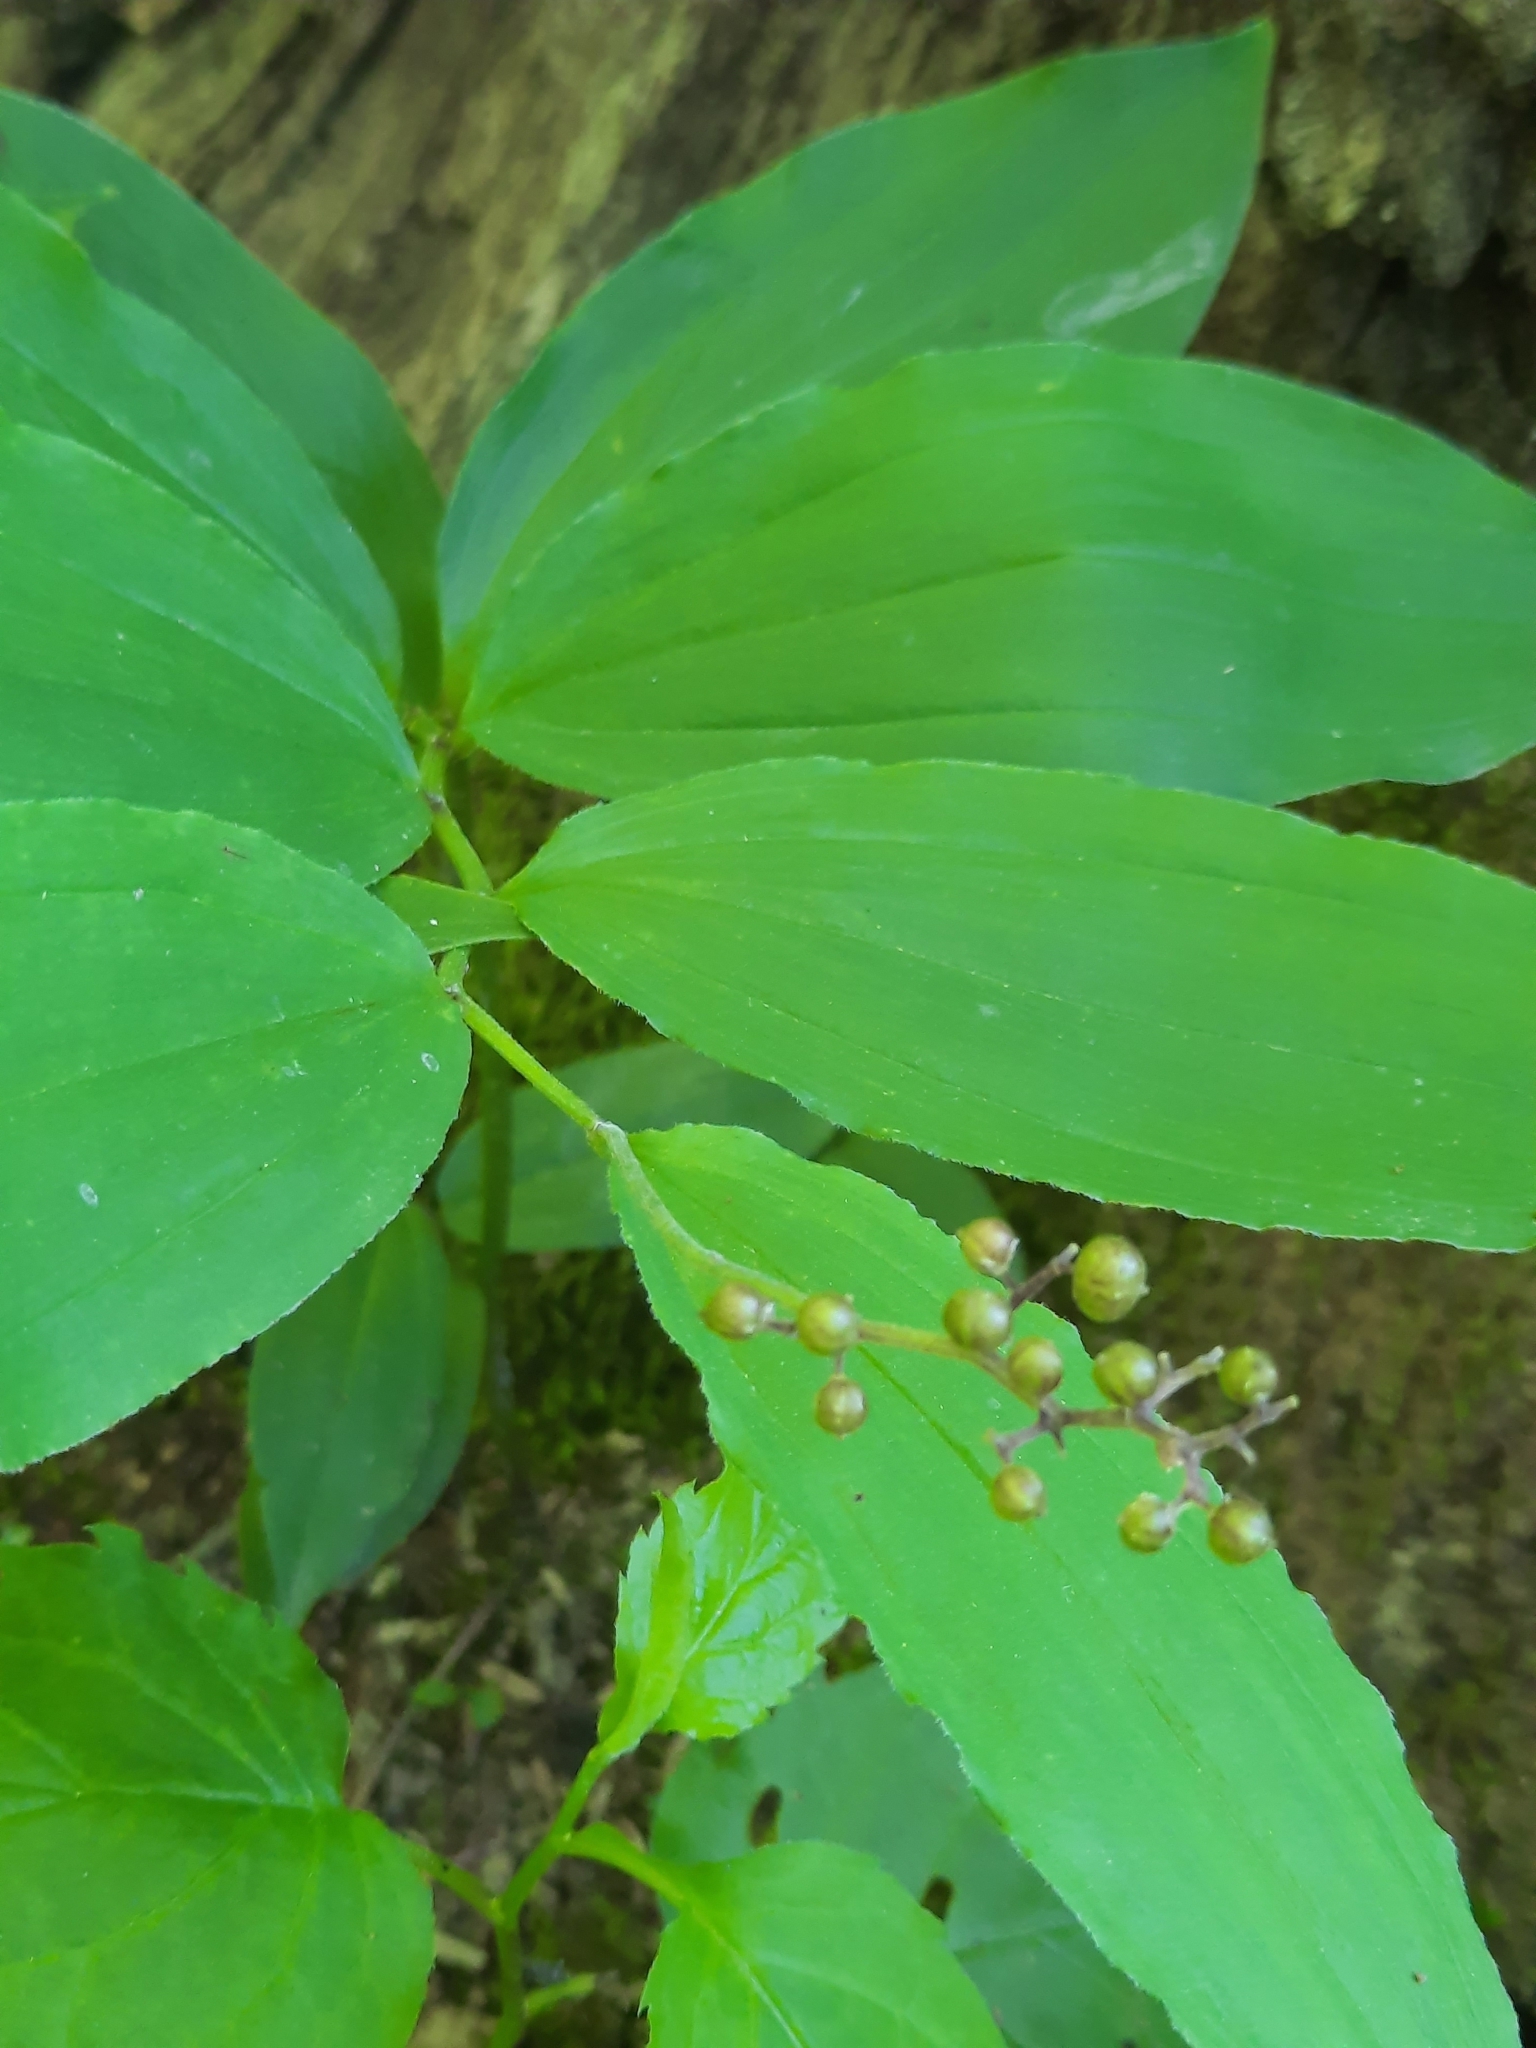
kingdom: Plantae
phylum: Tracheophyta
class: Liliopsida
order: Asparagales
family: Asparagaceae
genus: Maianthemum
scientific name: Maianthemum racemosum
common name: False spikenard
